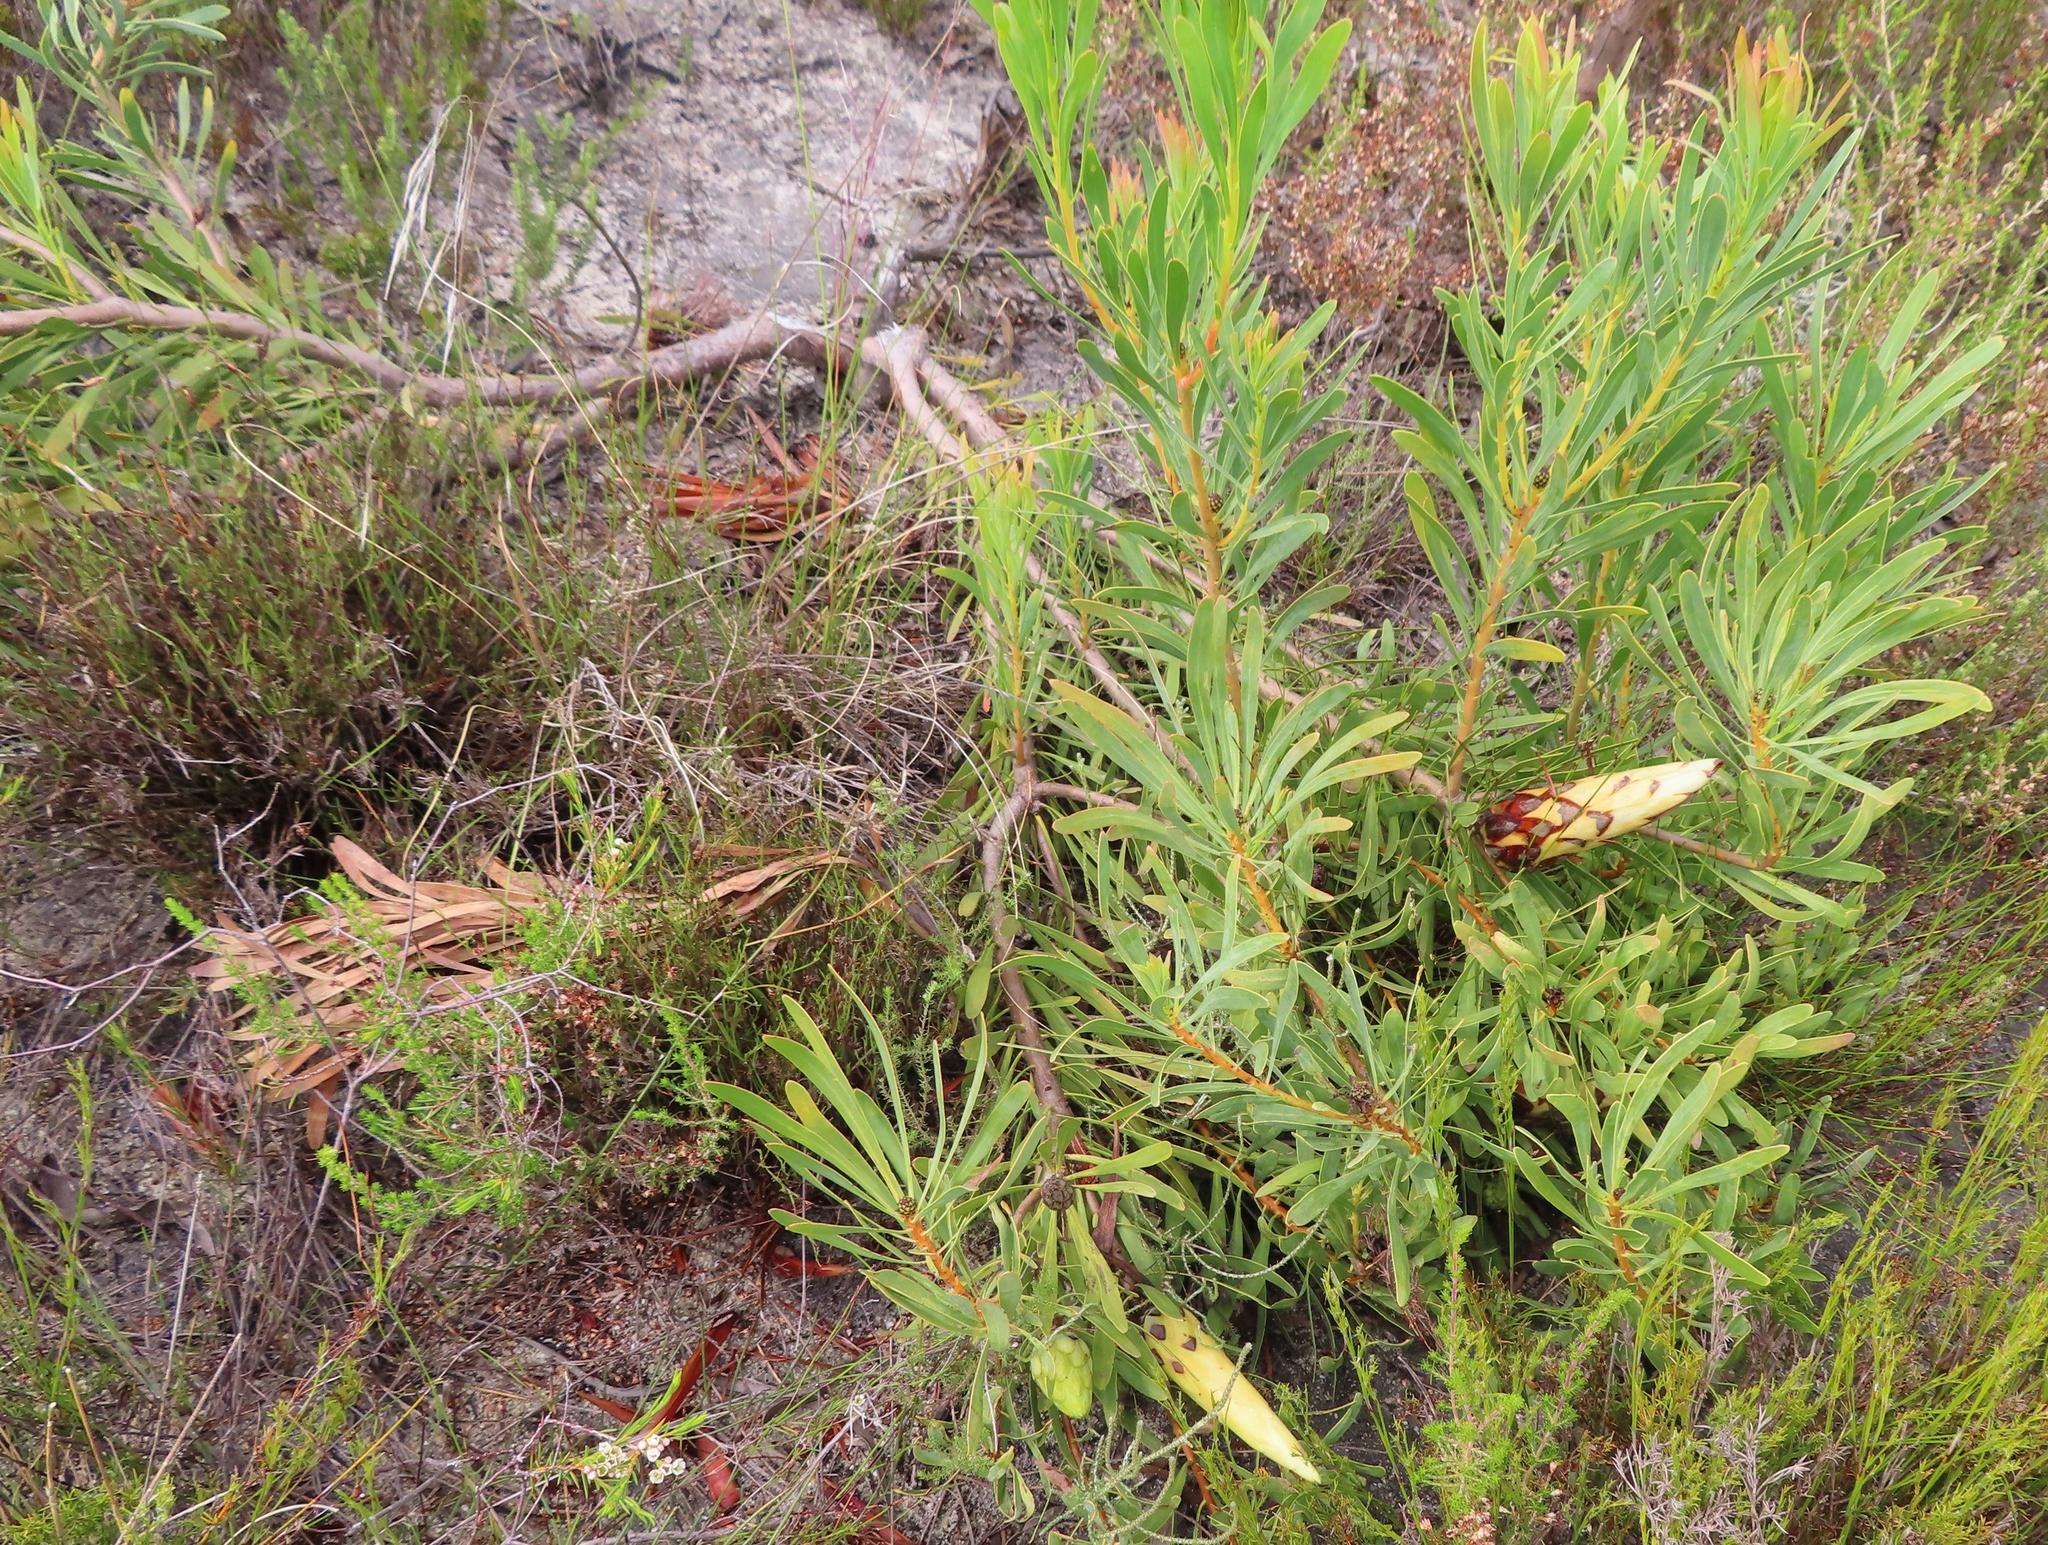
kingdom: Plantae
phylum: Tracheophyta
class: Magnoliopsida
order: Proteales
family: Proteaceae
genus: Protea
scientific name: Protea repens
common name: Sugarbush
